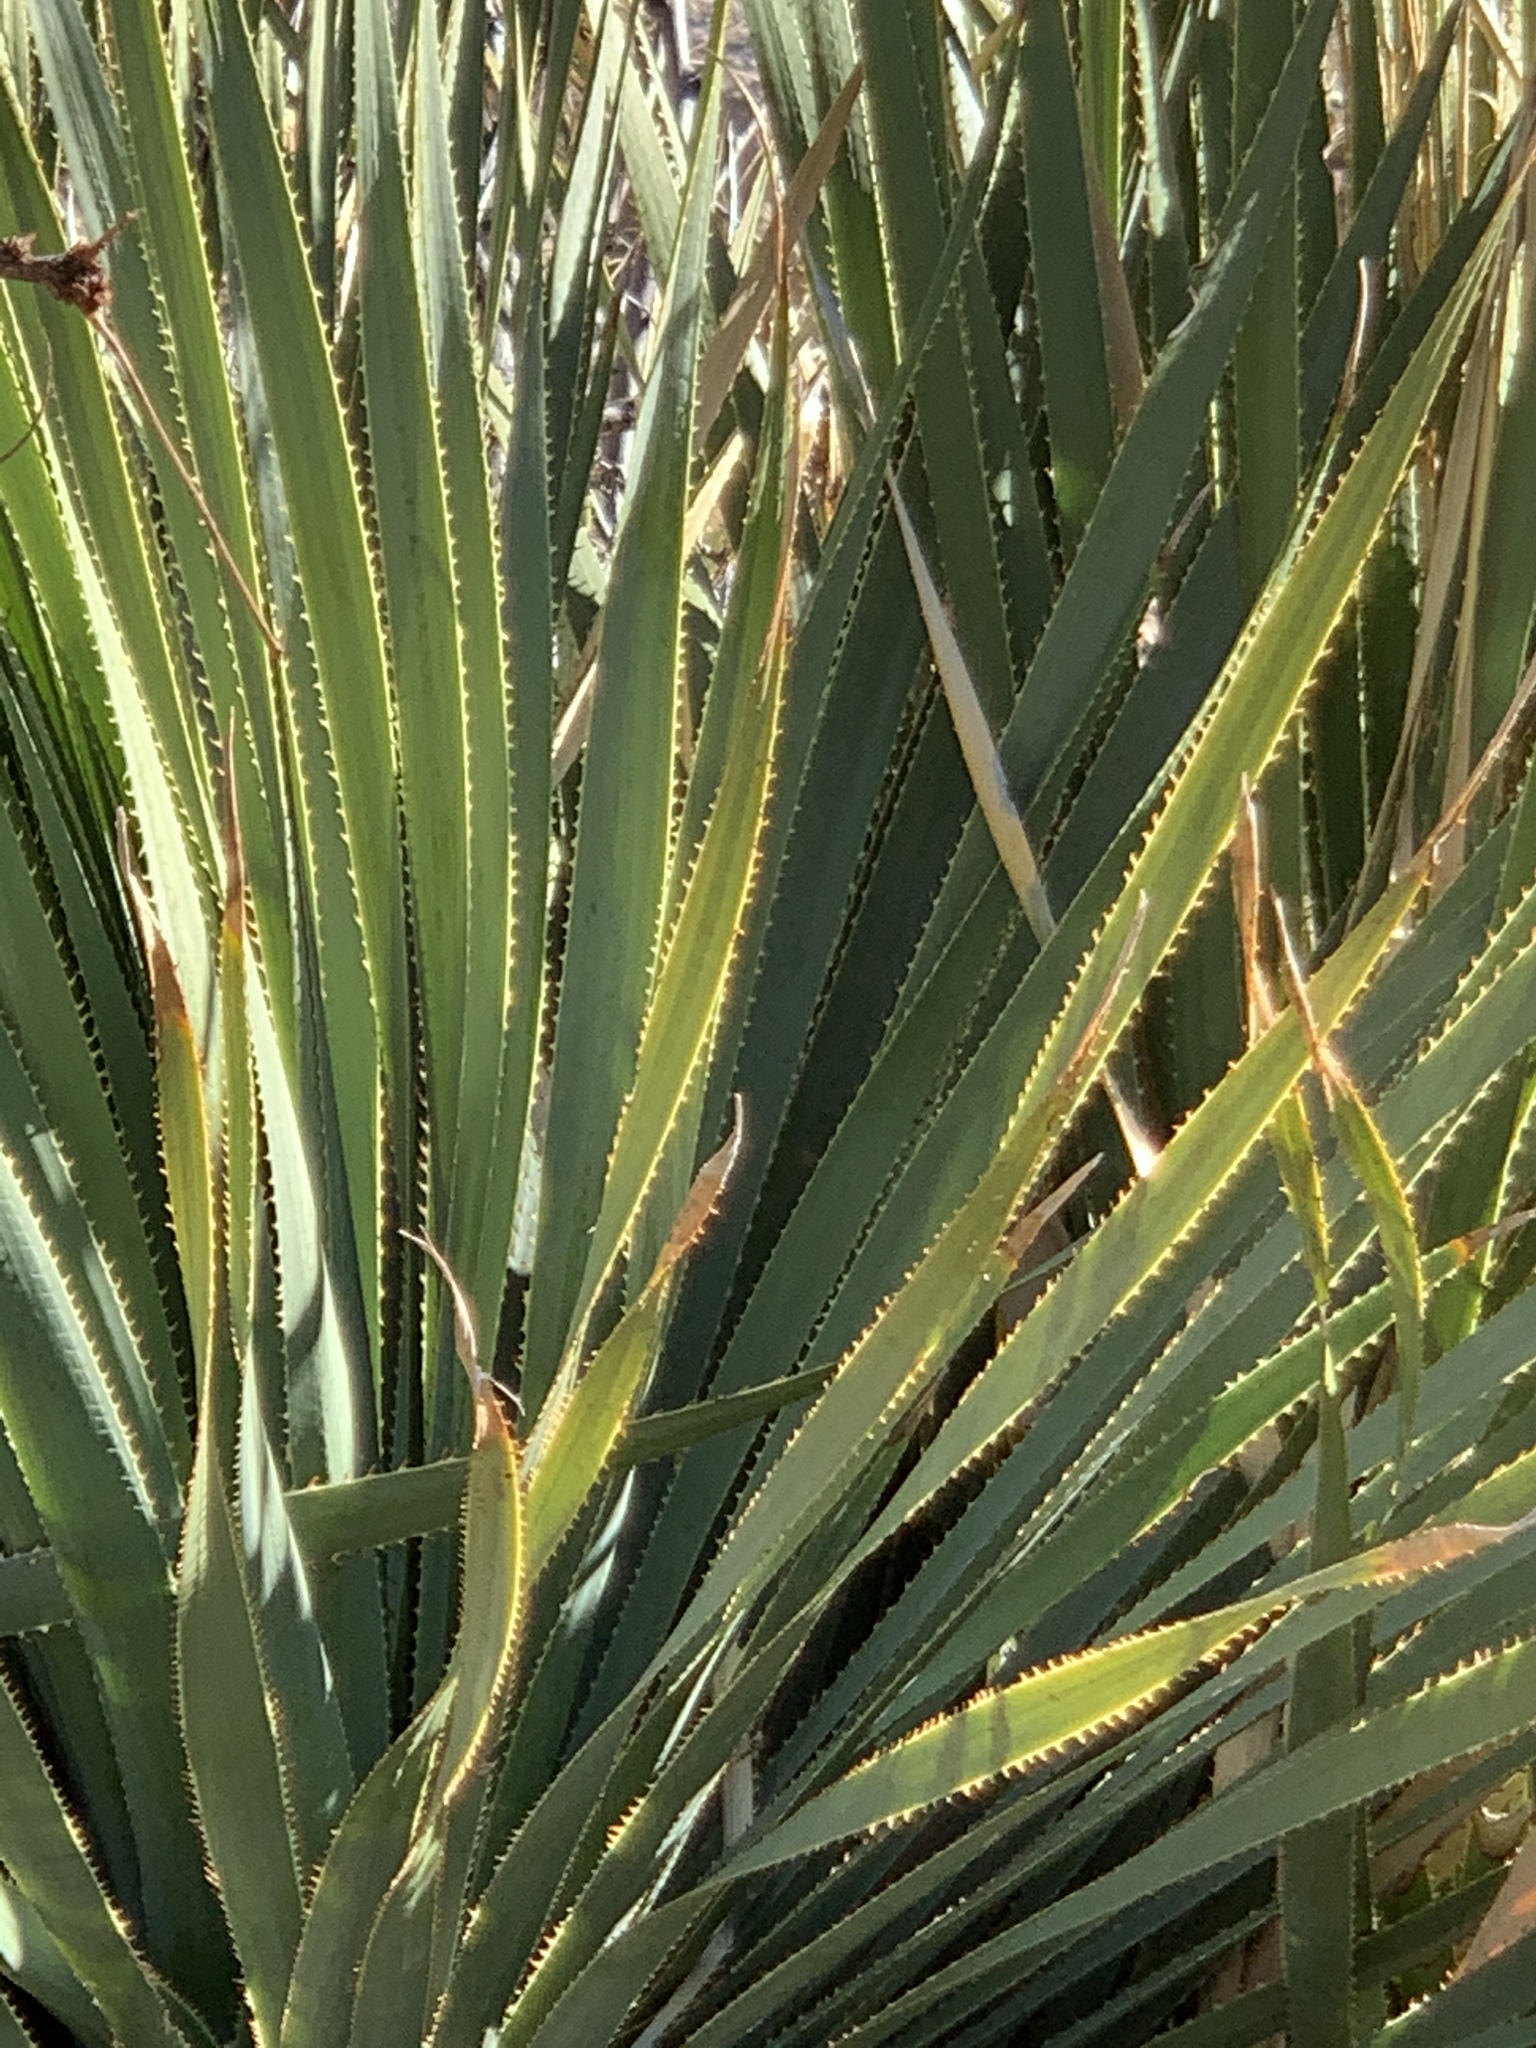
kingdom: Plantae
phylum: Tracheophyta
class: Liliopsida
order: Asparagales
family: Asparagaceae
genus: Dasylirion
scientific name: Dasylirion wheeleri
